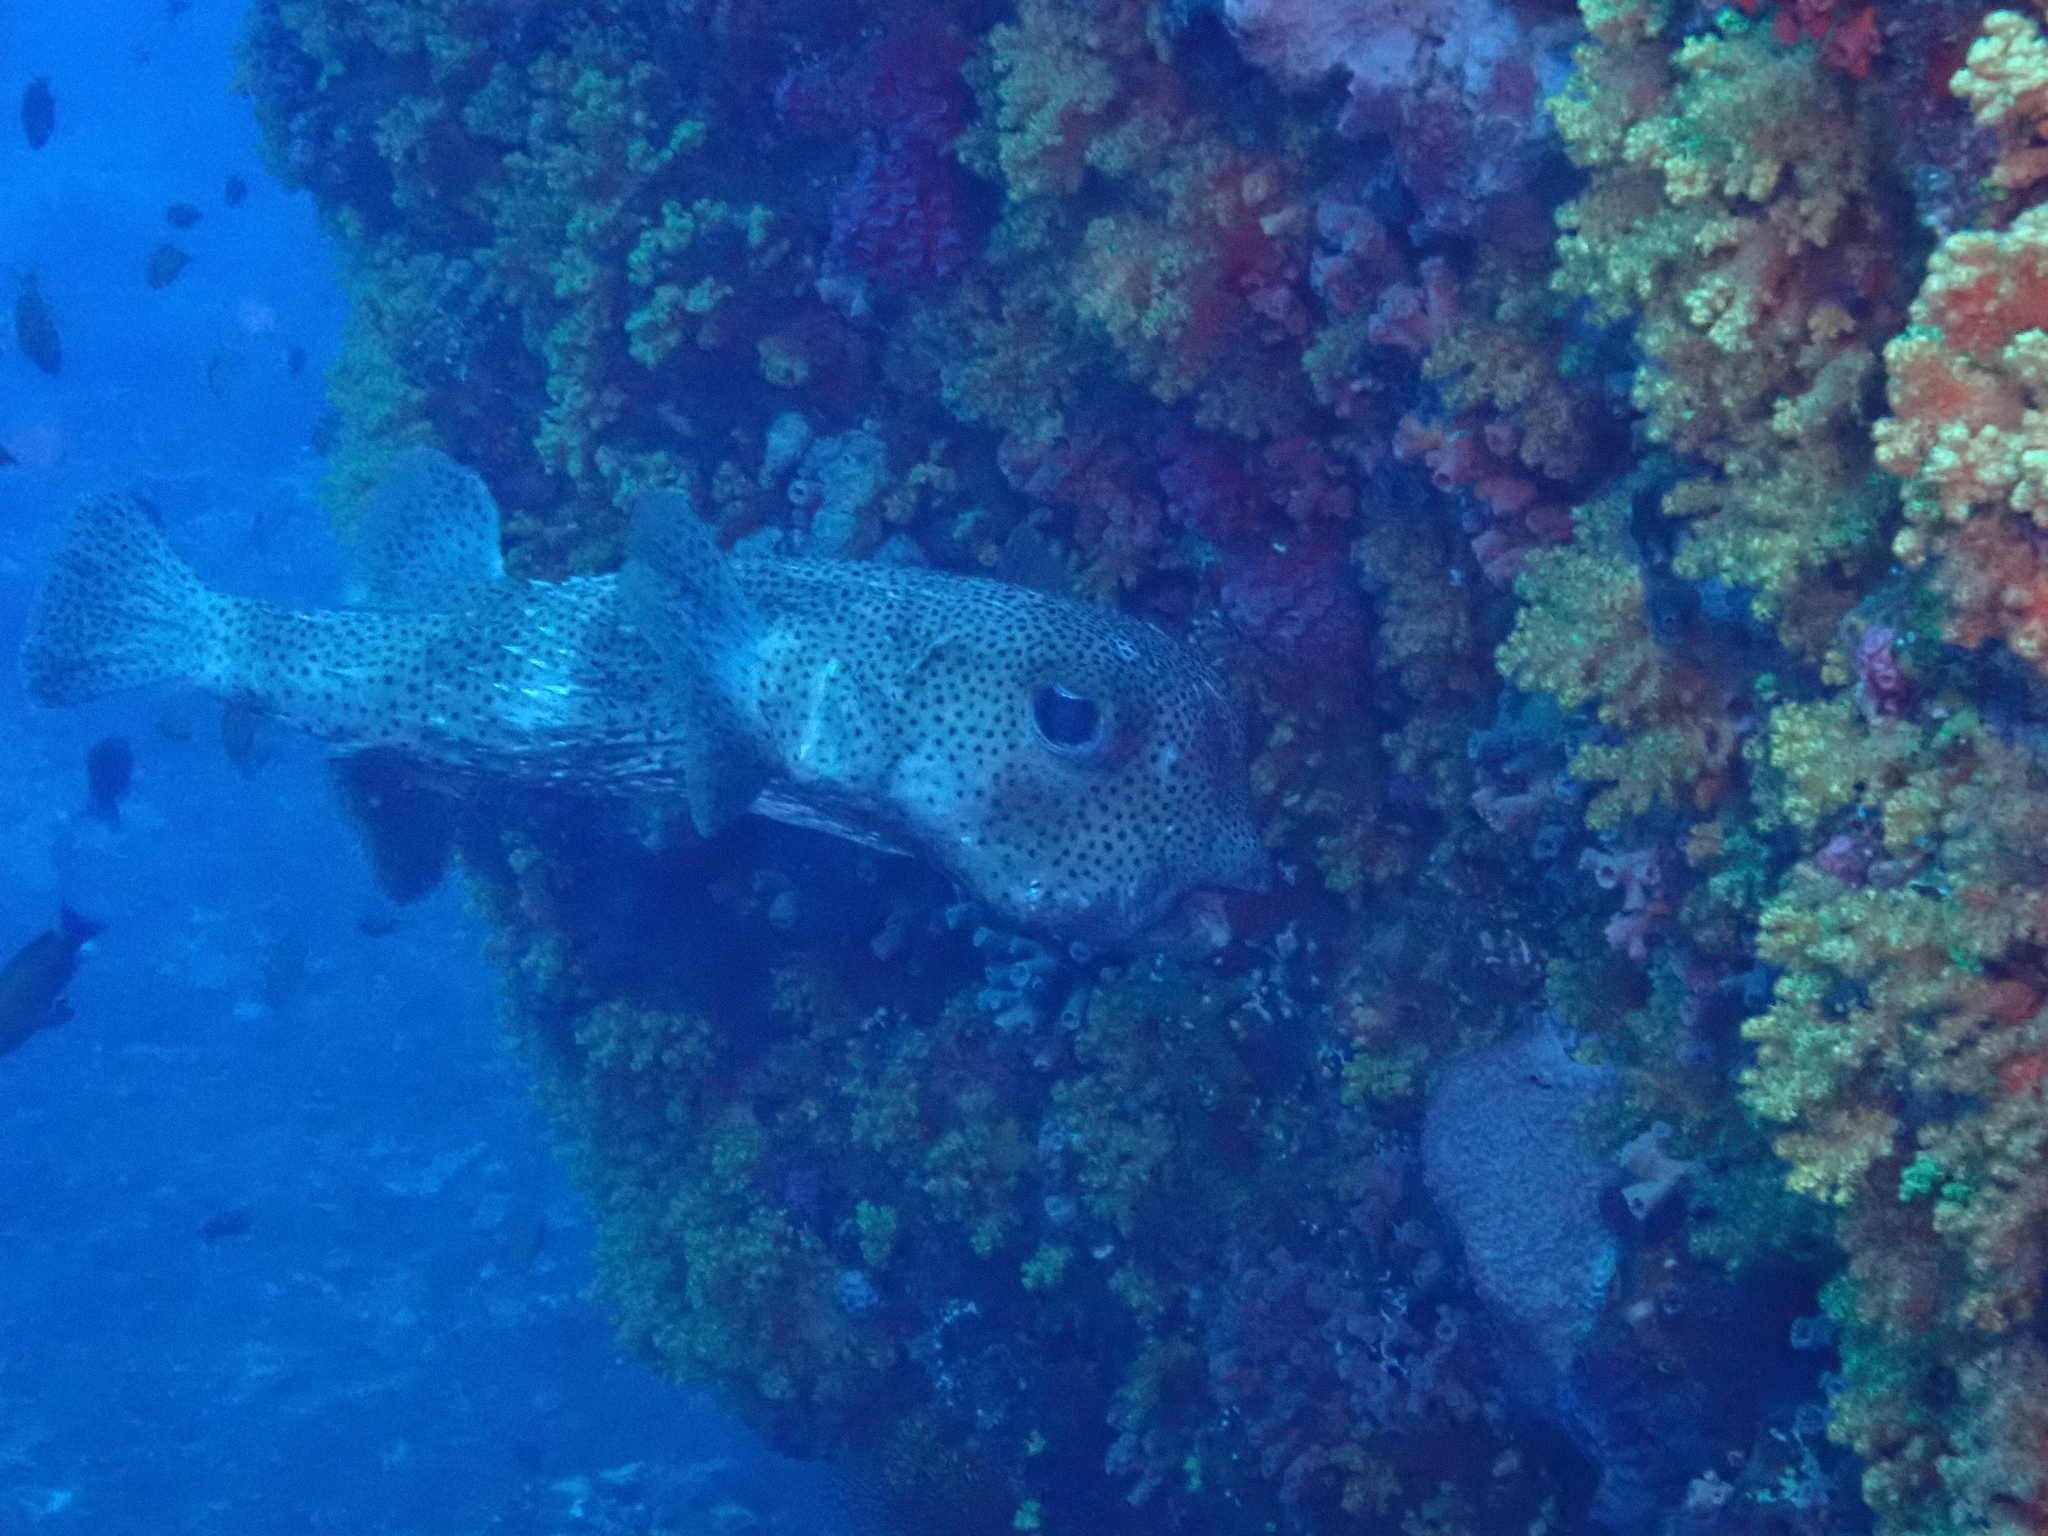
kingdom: Animalia
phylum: Chordata
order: Tetraodontiformes
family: Diodontidae
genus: Diodon
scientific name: Diodon hystrix
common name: Giant porcupinefish
